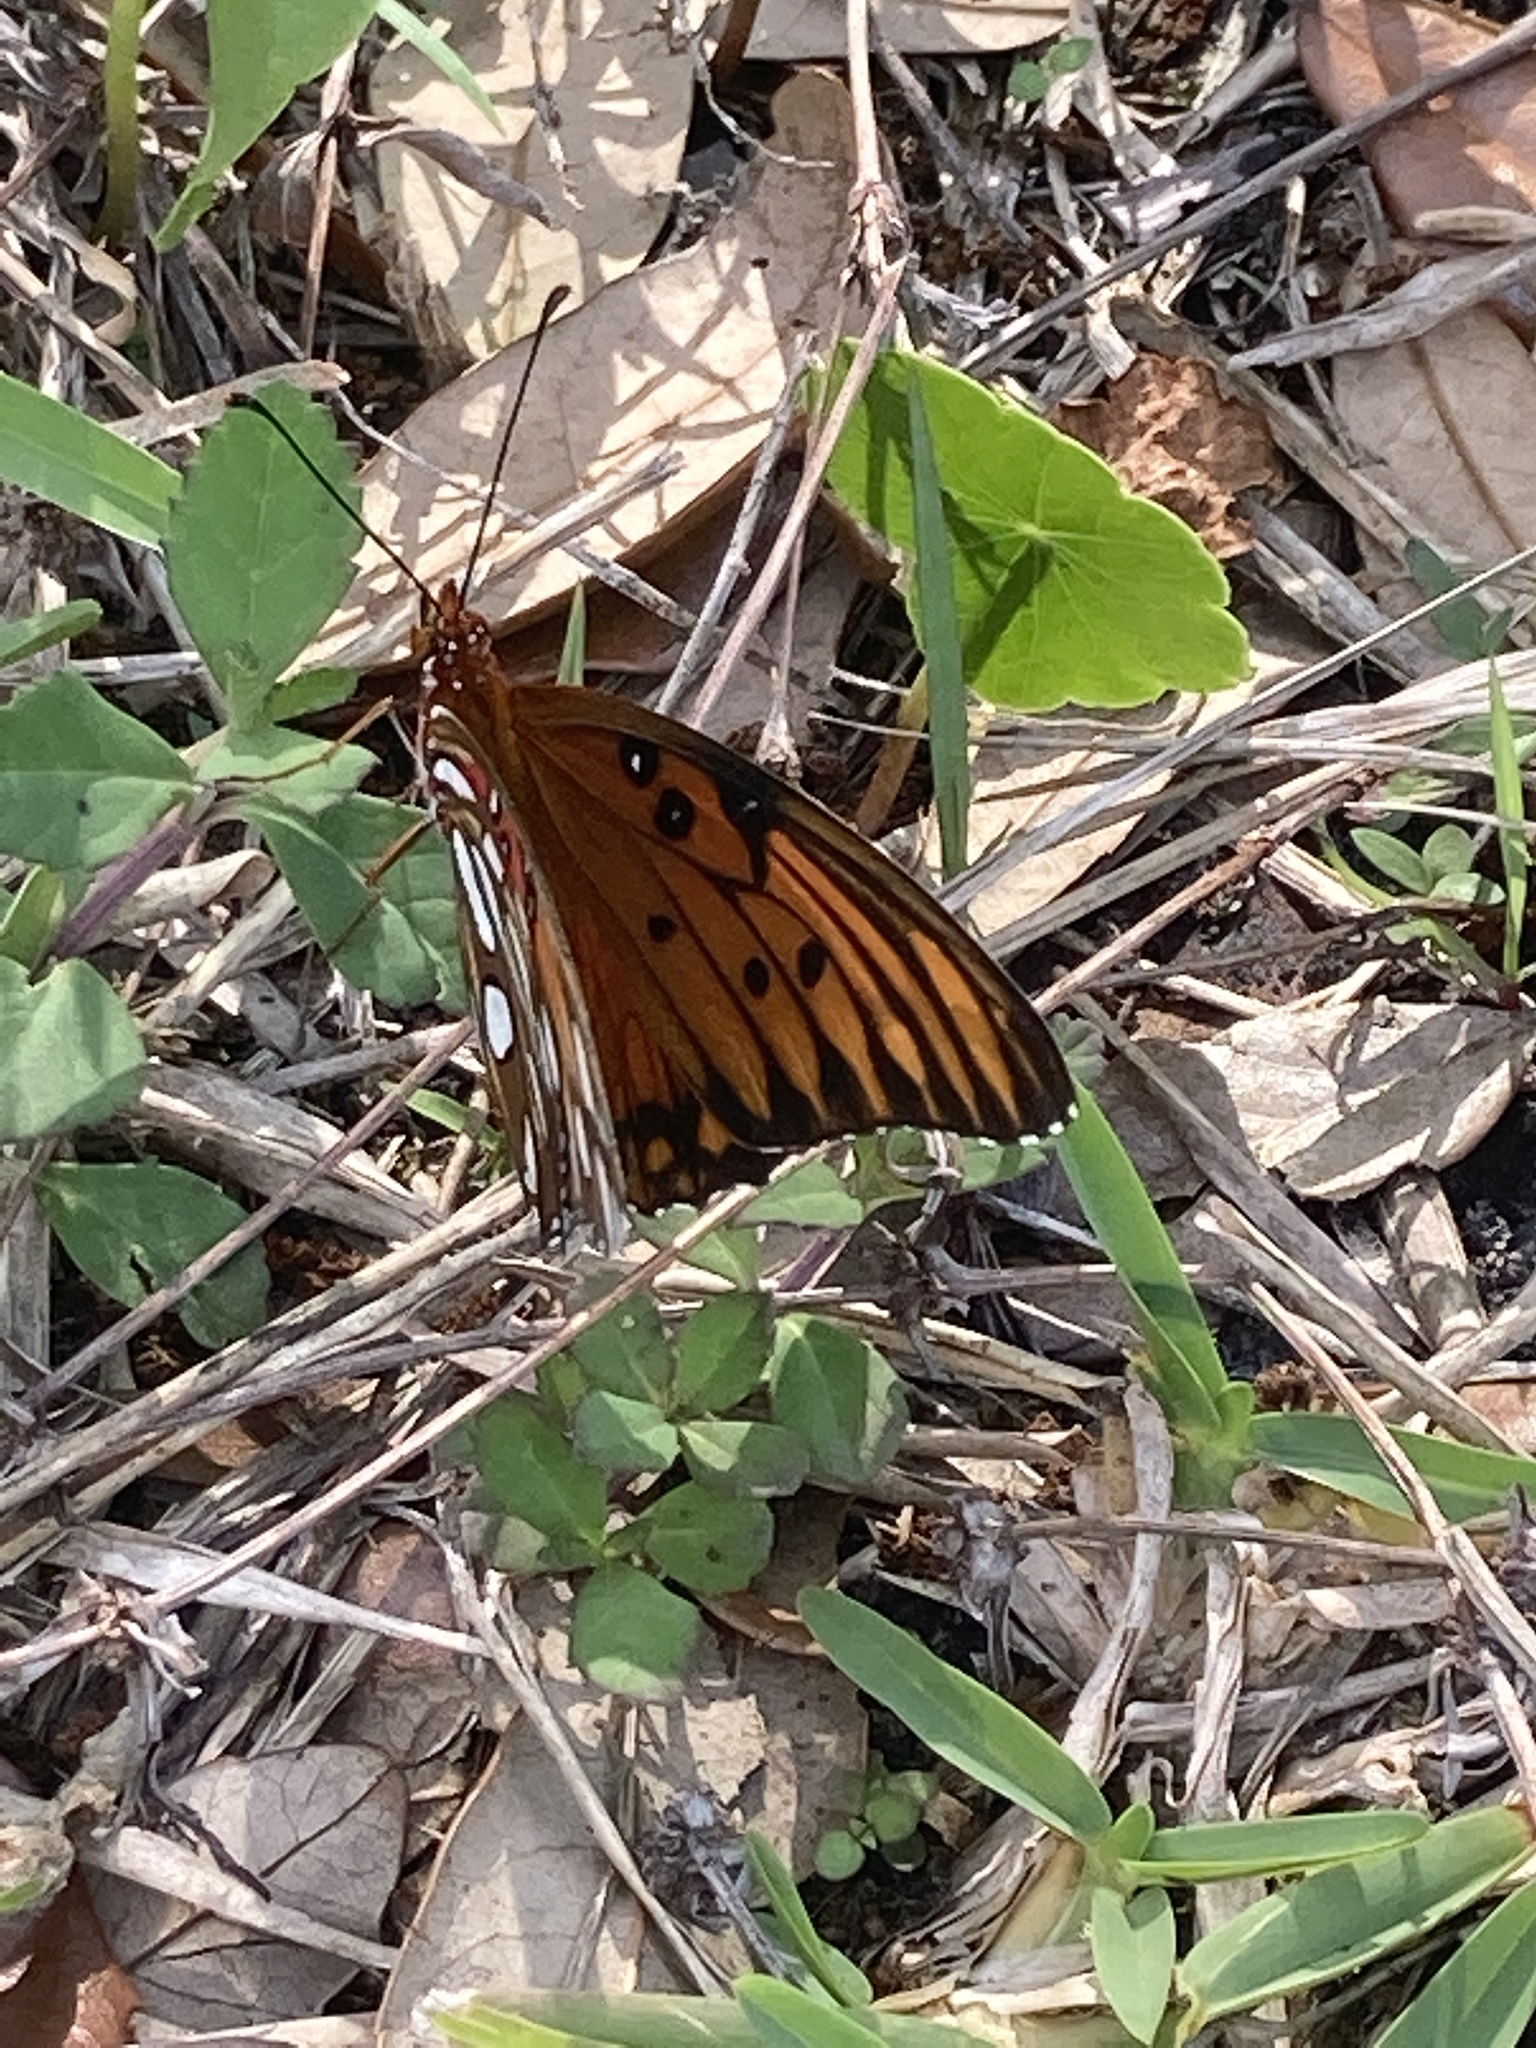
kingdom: Animalia
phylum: Arthropoda
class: Insecta
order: Lepidoptera
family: Nymphalidae
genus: Dione
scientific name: Dione vanillae
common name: Gulf fritillary
